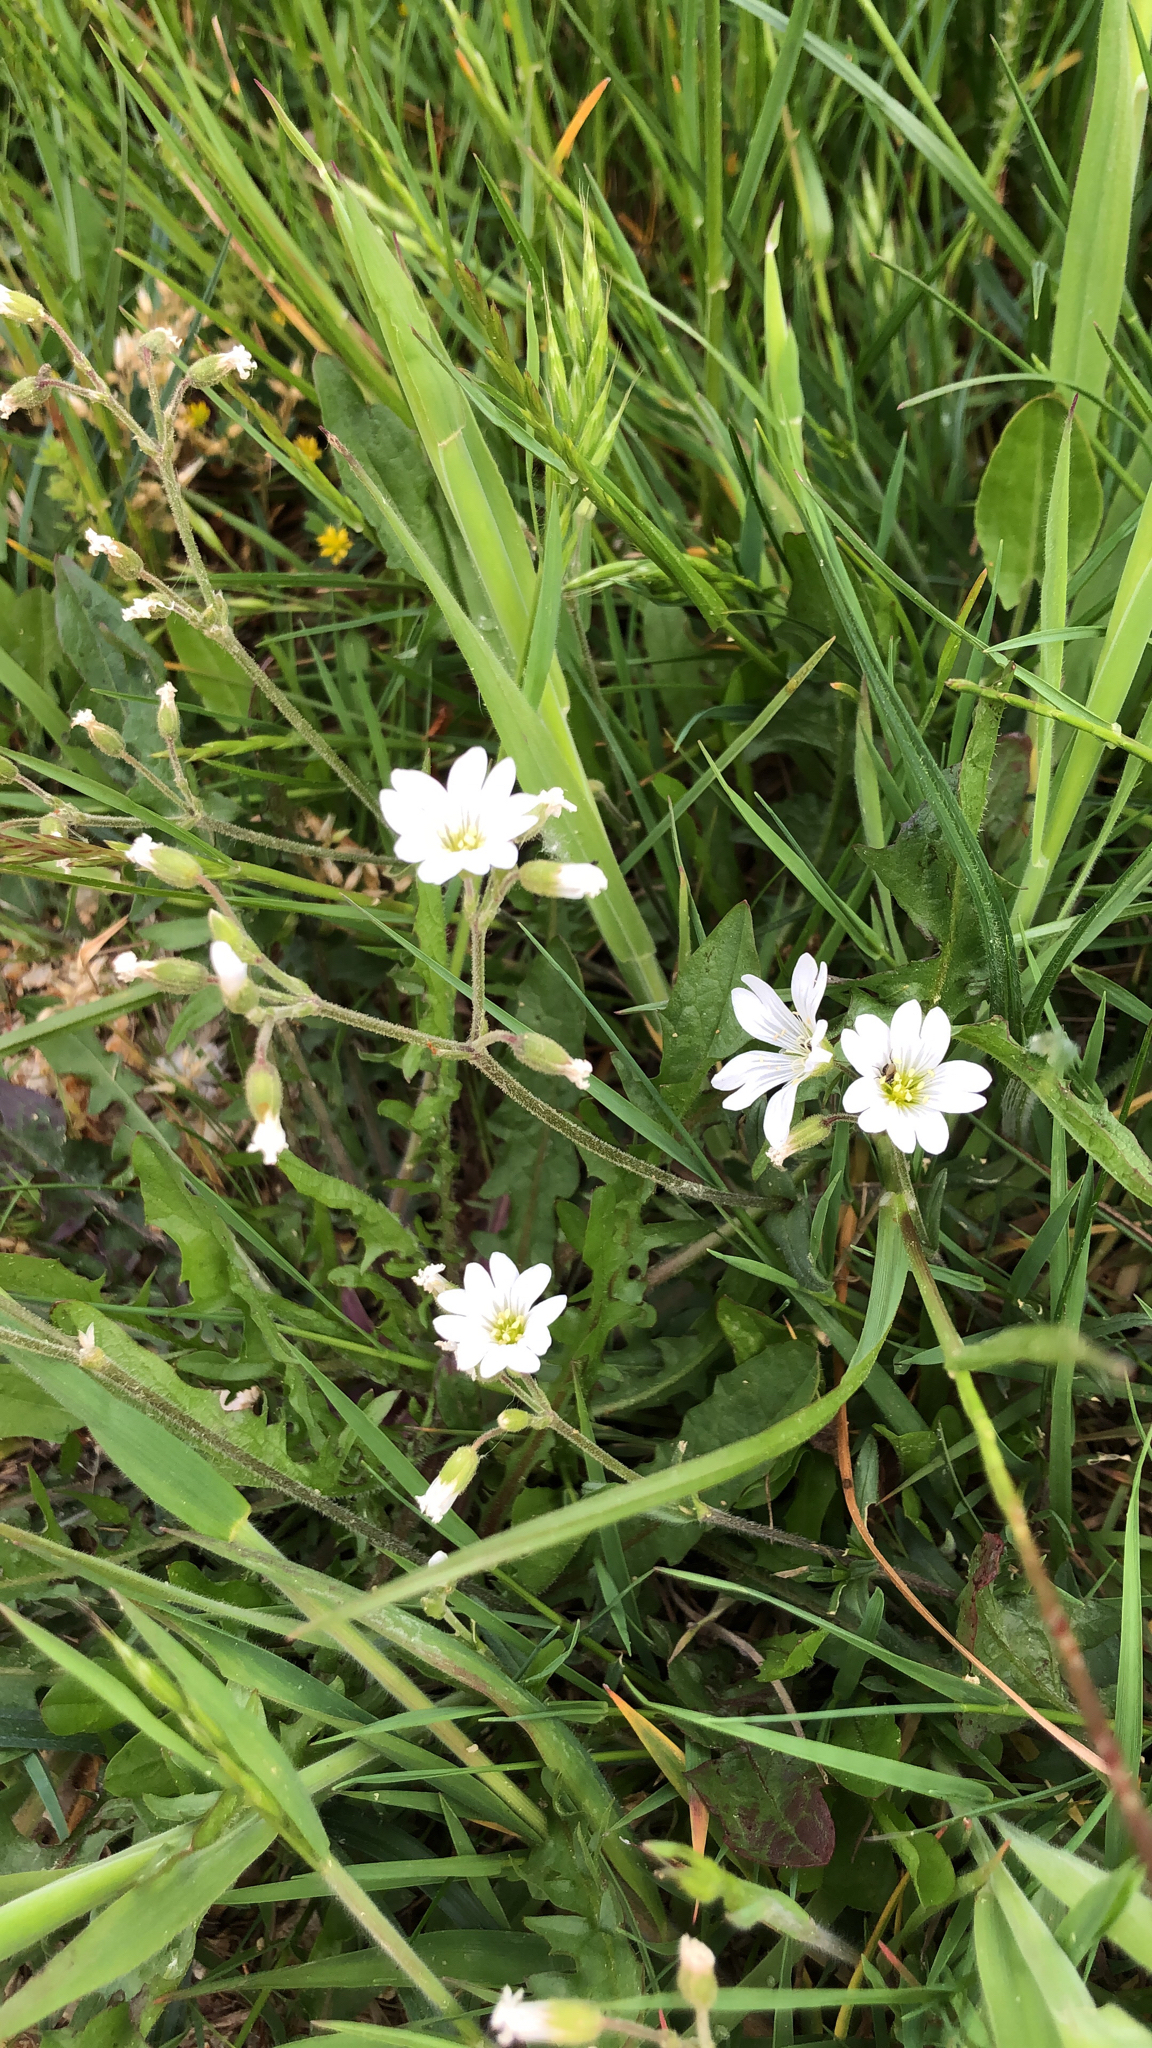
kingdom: Plantae
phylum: Tracheophyta
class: Magnoliopsida
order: Caryophyllales
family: Caryophyllaceae
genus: Cerastium
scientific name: Cerastium arvense
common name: Field mouse-ear
